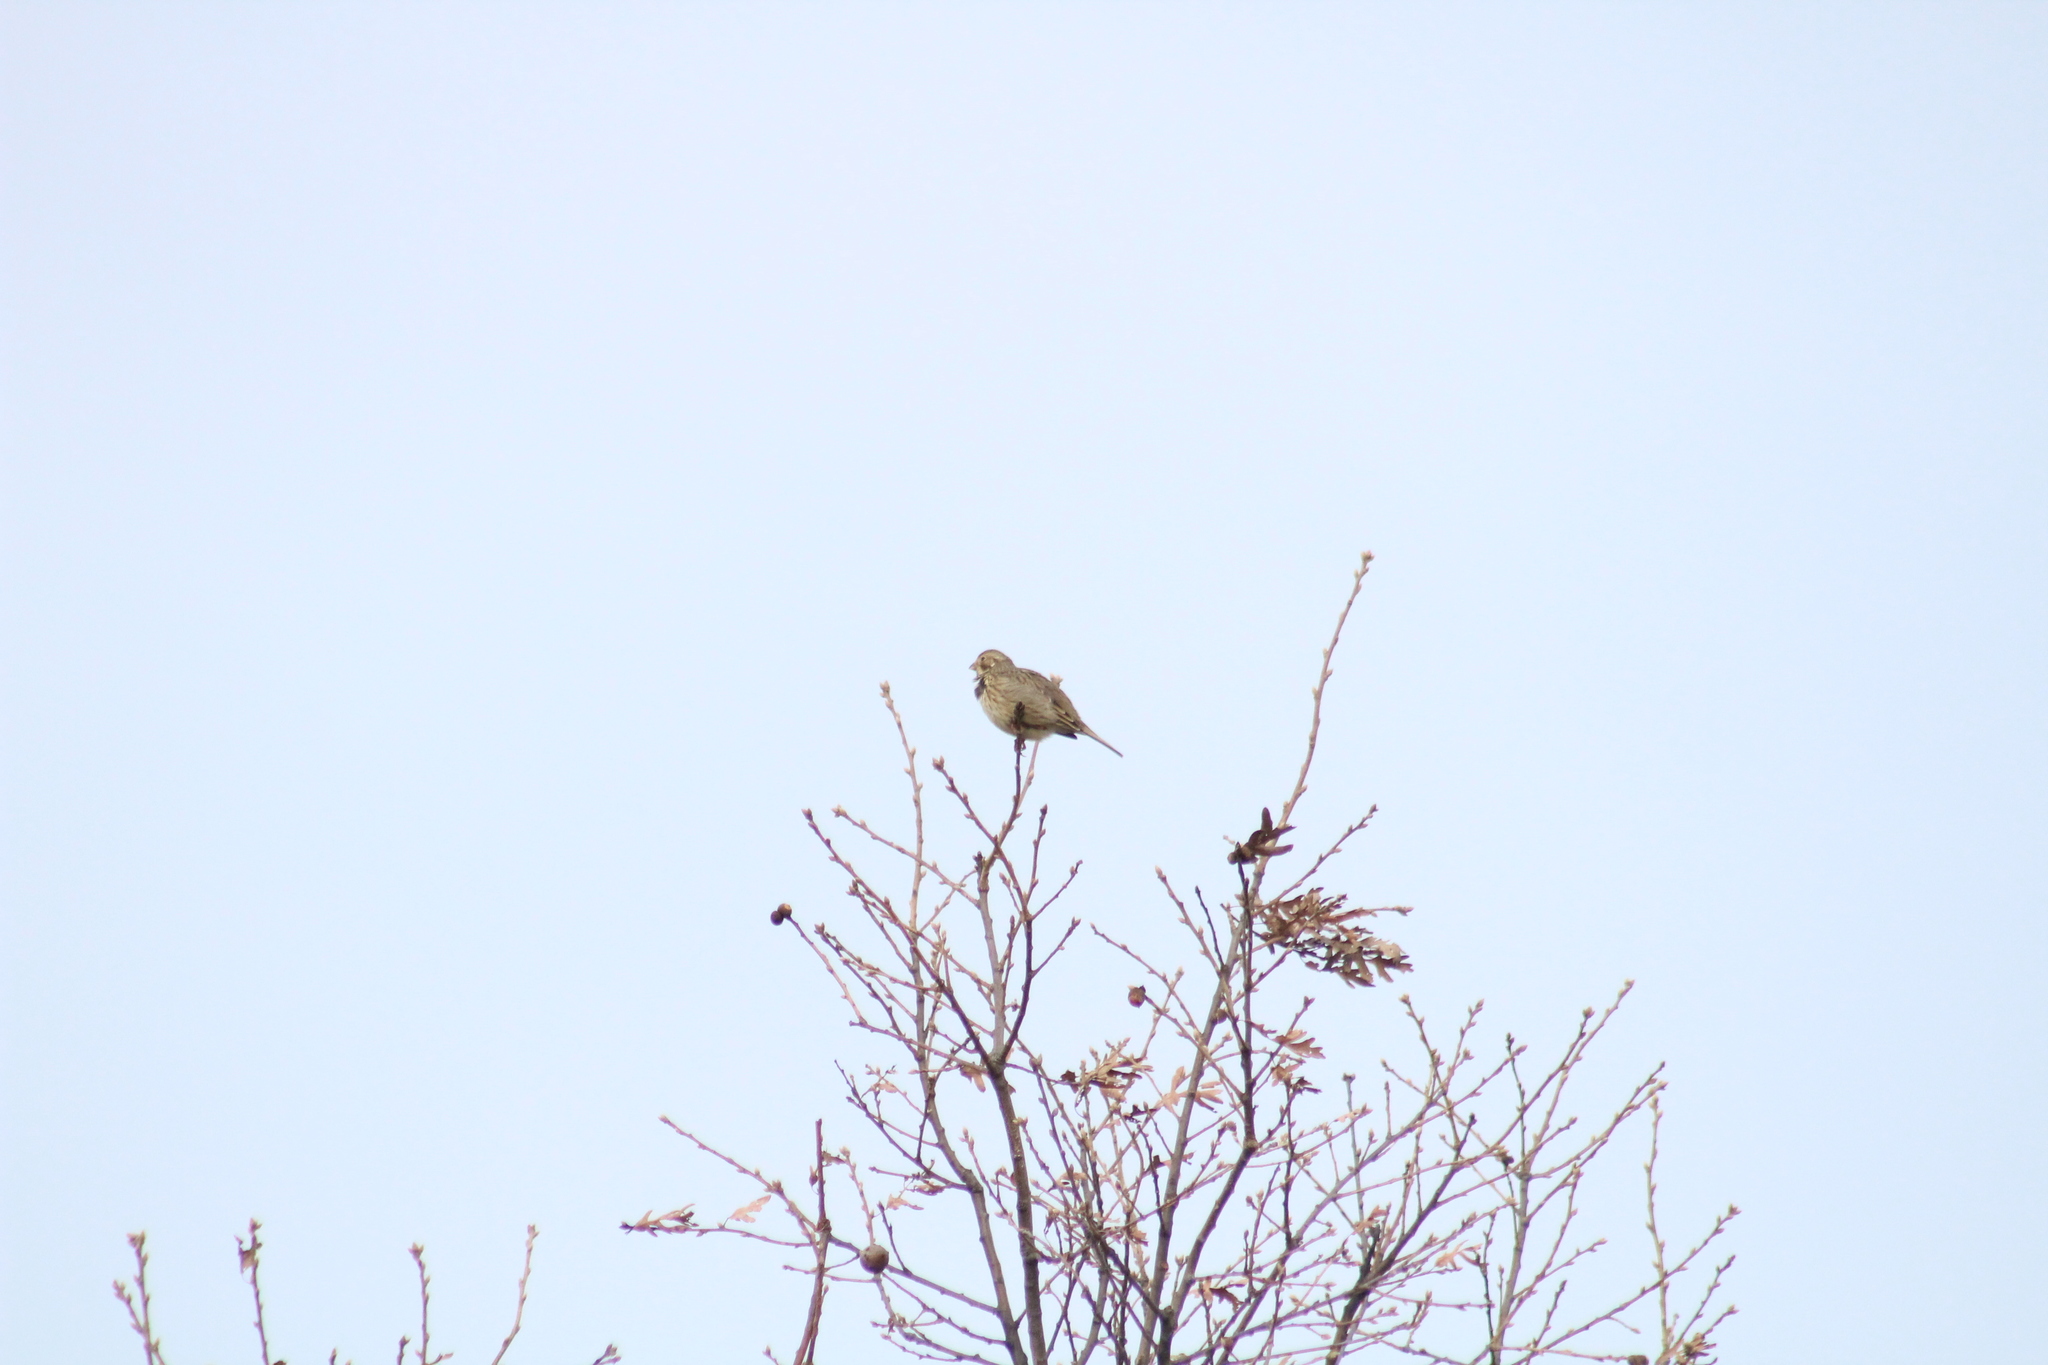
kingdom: Animalia
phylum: Chordata
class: Aves
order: Passeriformes
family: Emberizidae
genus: Emberiza
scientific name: Emberiza calandra
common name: Corn bunting
